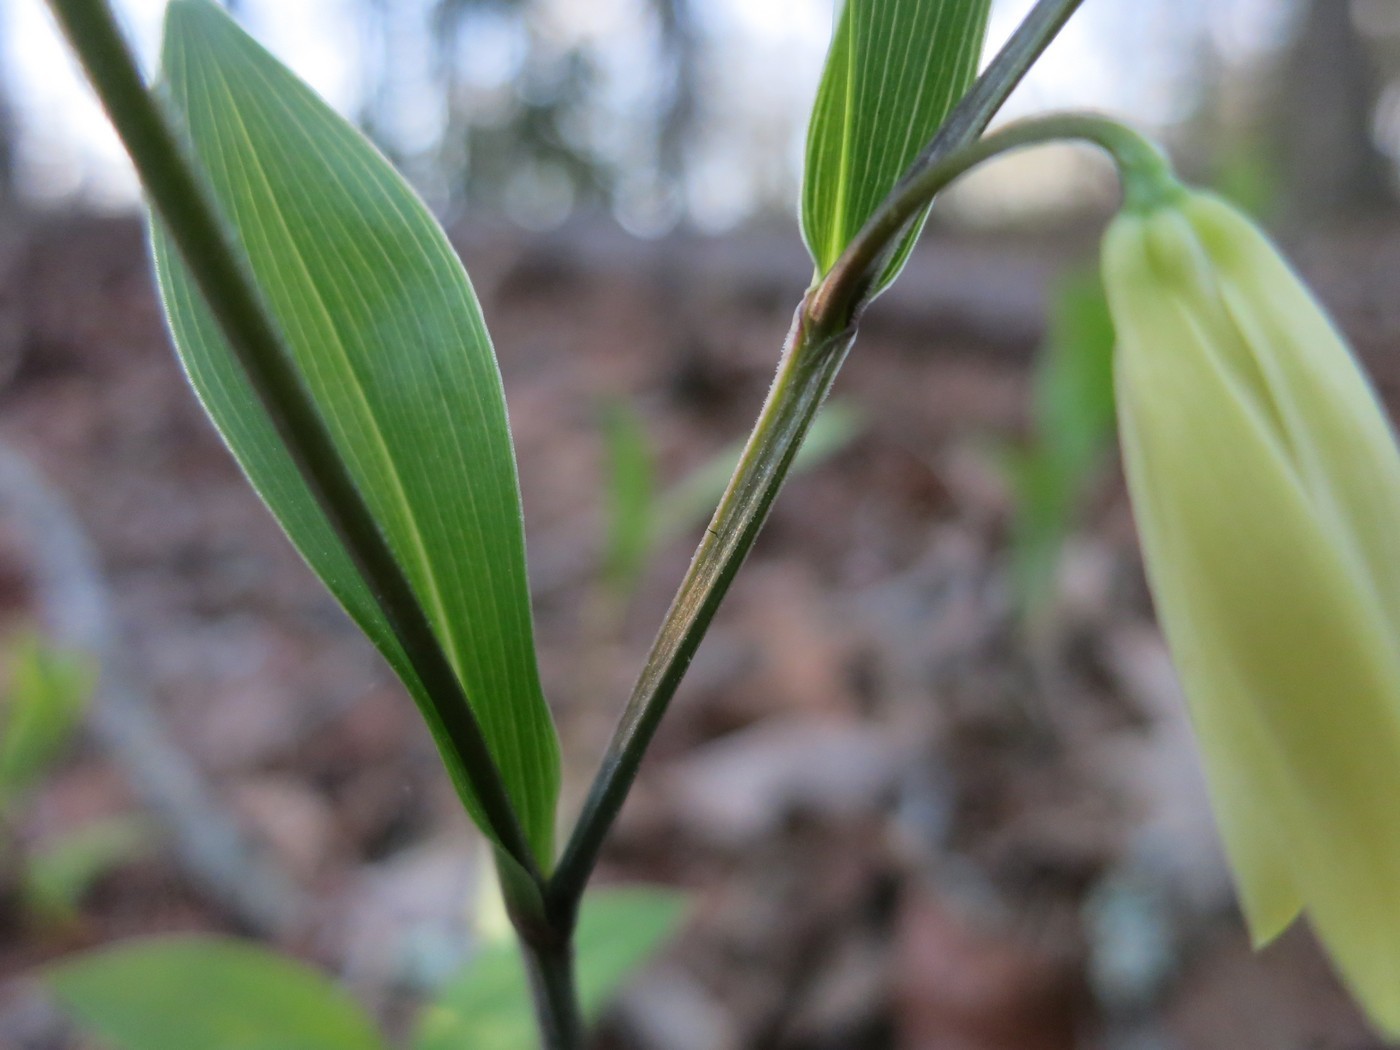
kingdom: Plantae
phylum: Tracheophyta
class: Liliopsida
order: Liliales
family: Colchicaceae
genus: Uvularia
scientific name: Uvularia puberula
